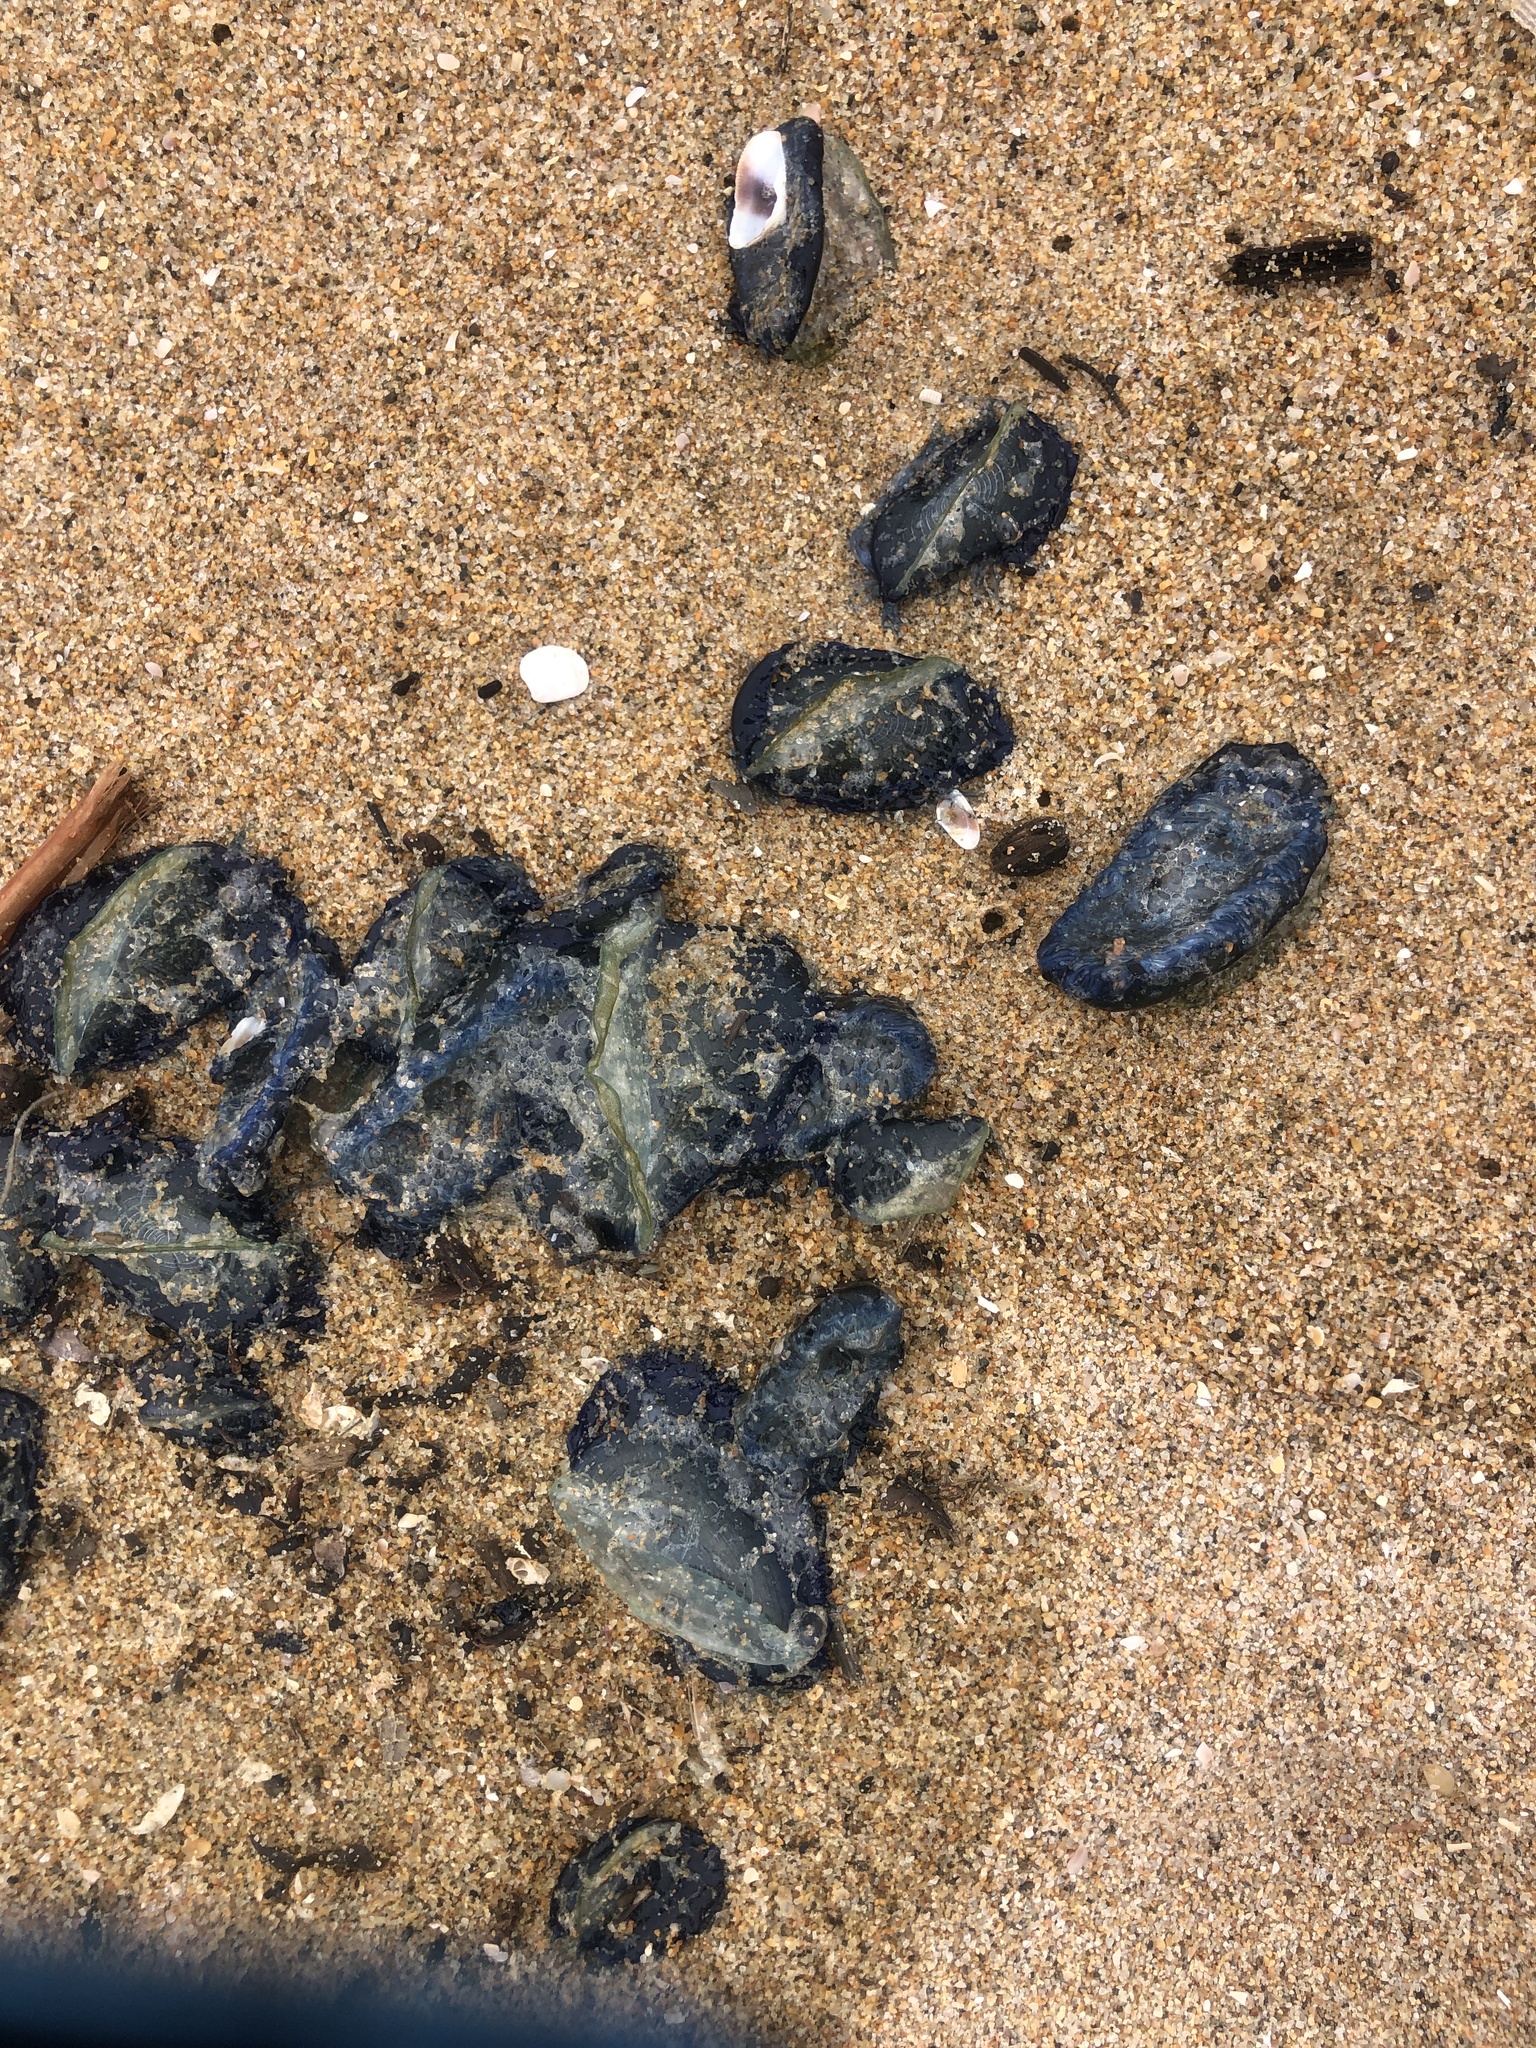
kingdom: Animalia
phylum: Cnidaria
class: Hydrozoa
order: Anthoathecata
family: Porpitidae
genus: Velella
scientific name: Velella velella
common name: By-the-wind-sailor
